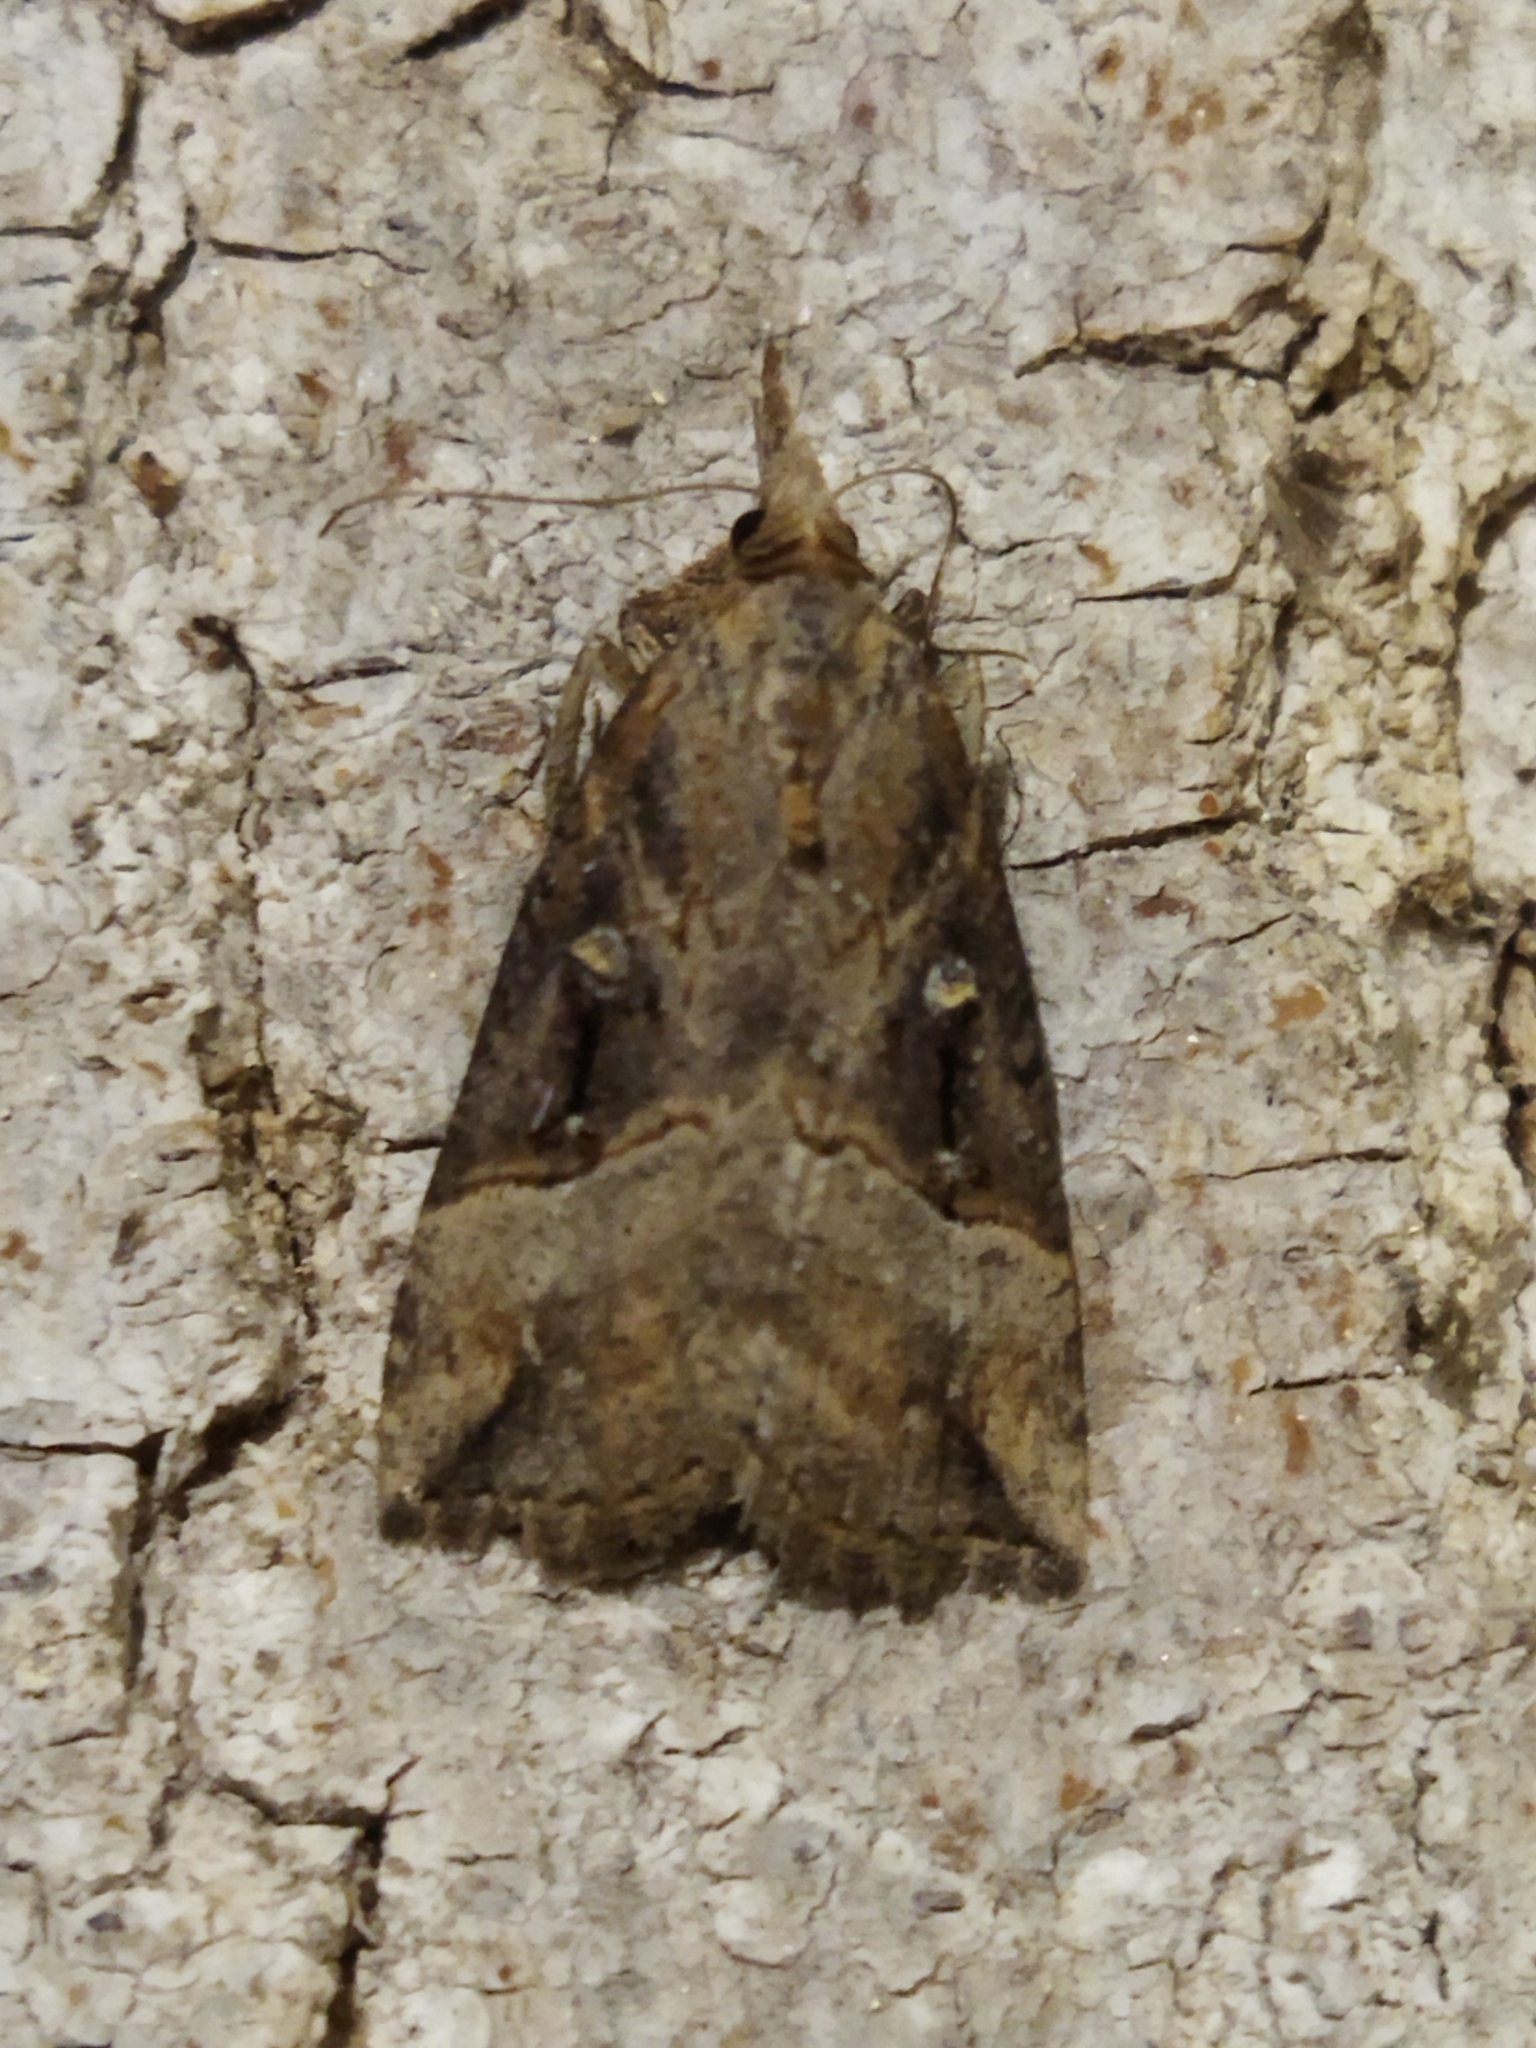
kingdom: Animalia
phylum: Arthropoda
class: Insecta
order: Lepidoptera
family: Erebidae
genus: Hypena
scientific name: Hypena rostralis
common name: Buttoned snout
